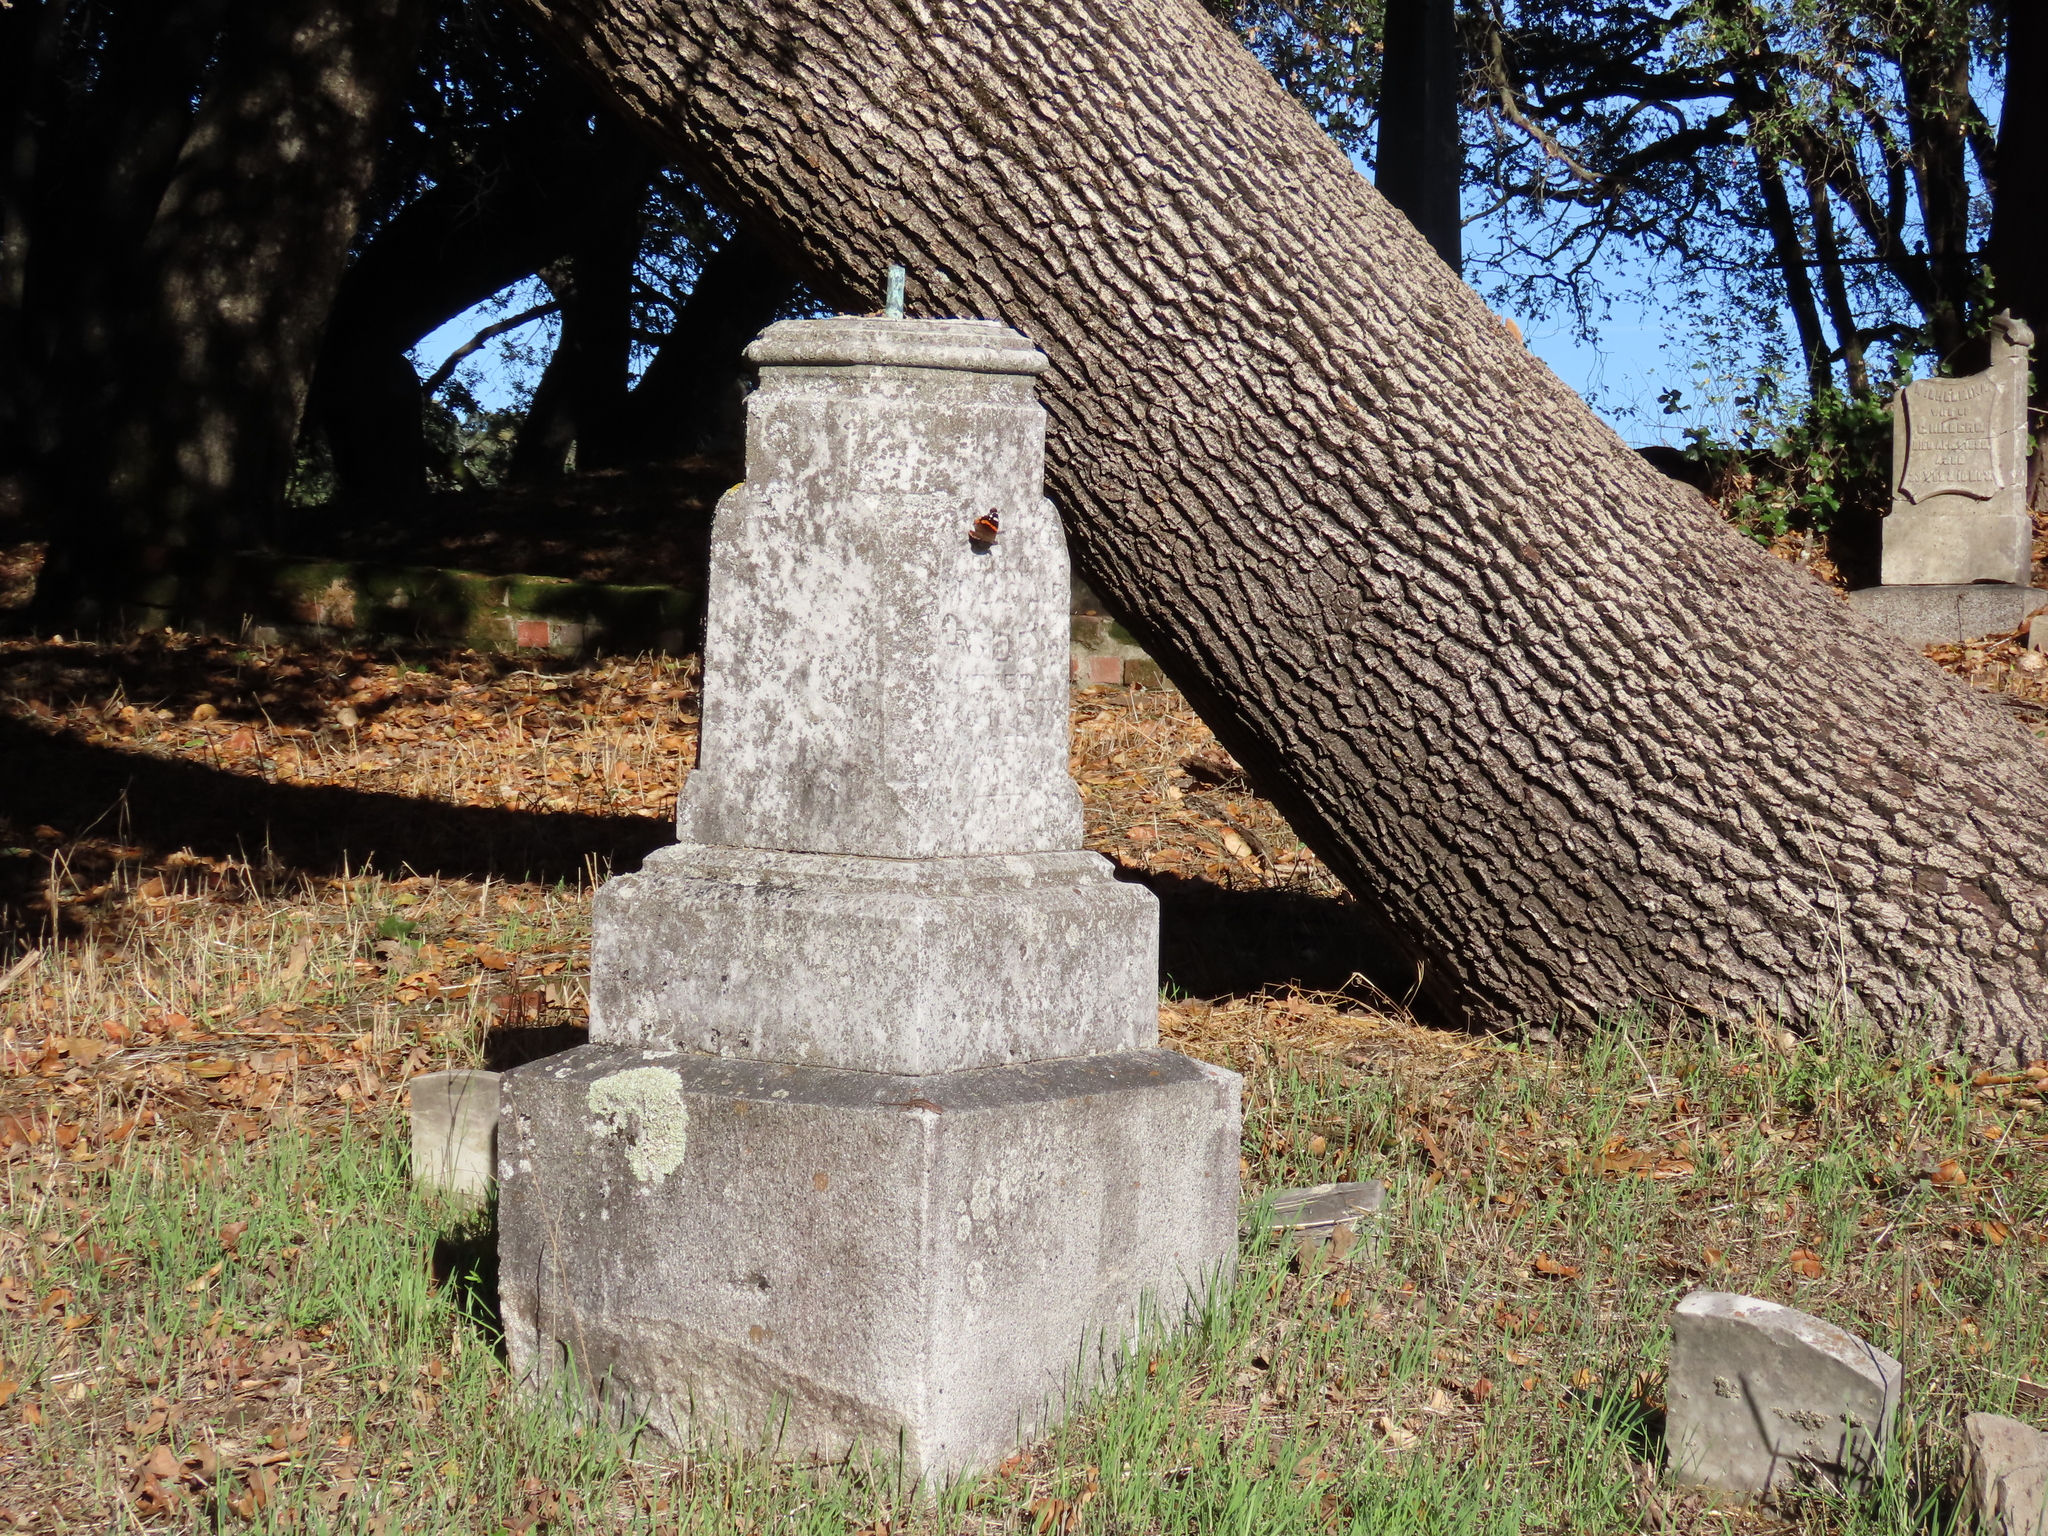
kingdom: Animalia
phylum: Arthropoda
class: Insecta
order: Lepidoptera
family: Nymphalidae
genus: Vanessa
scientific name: Vanessa atalanta
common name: Red admiral
